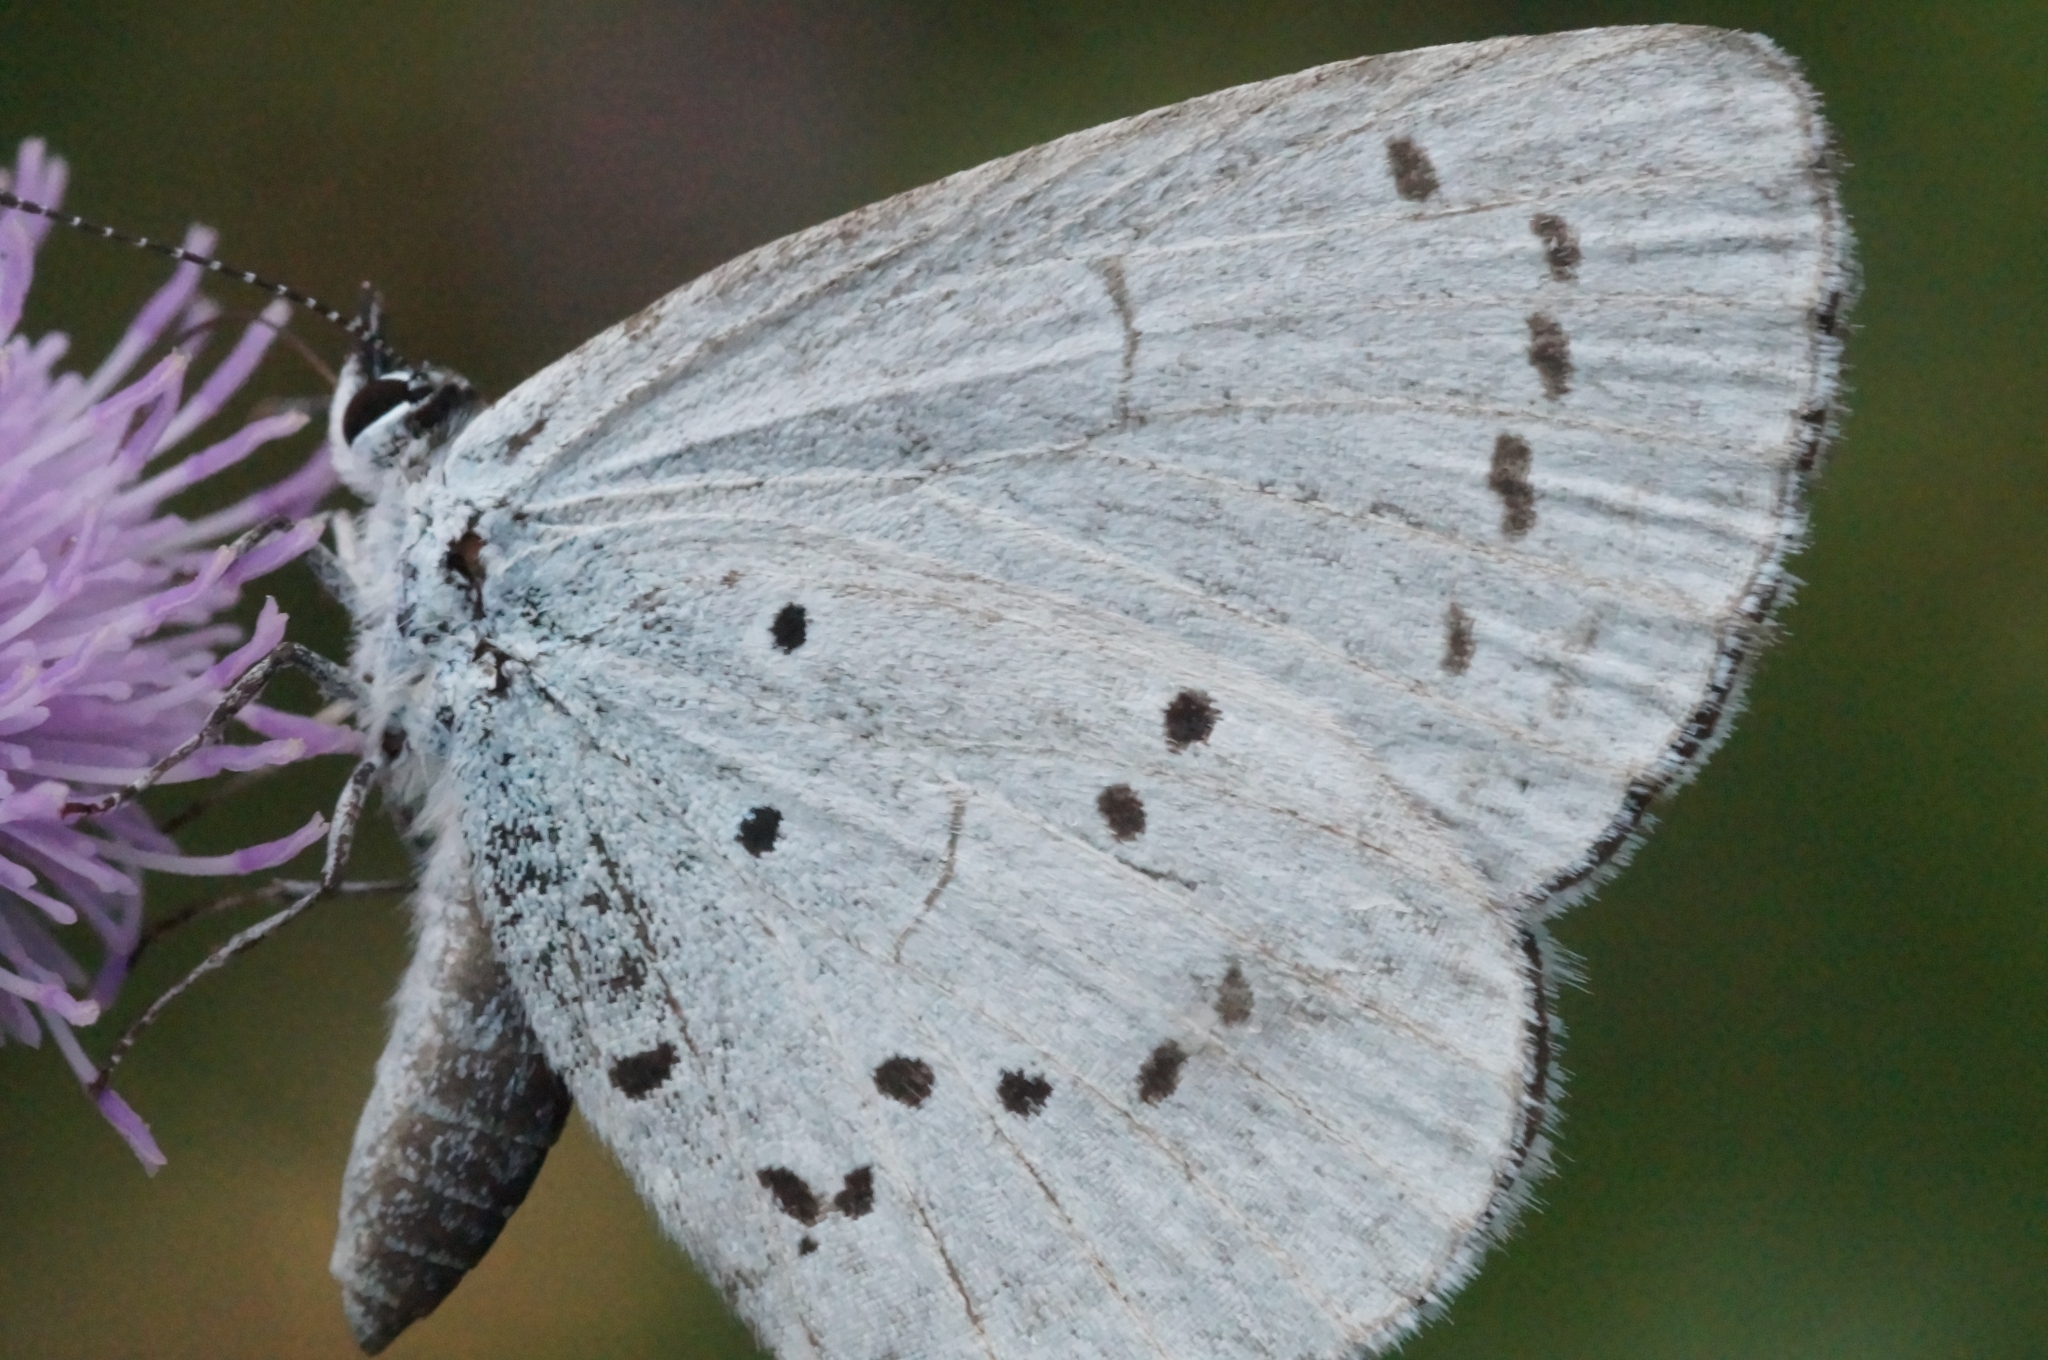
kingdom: Animalia
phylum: Arthropoda
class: Insecta
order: Lepidoptera
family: Lycaenidae
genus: Celastrina
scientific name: Celastrina argiolus
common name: Holly blue
